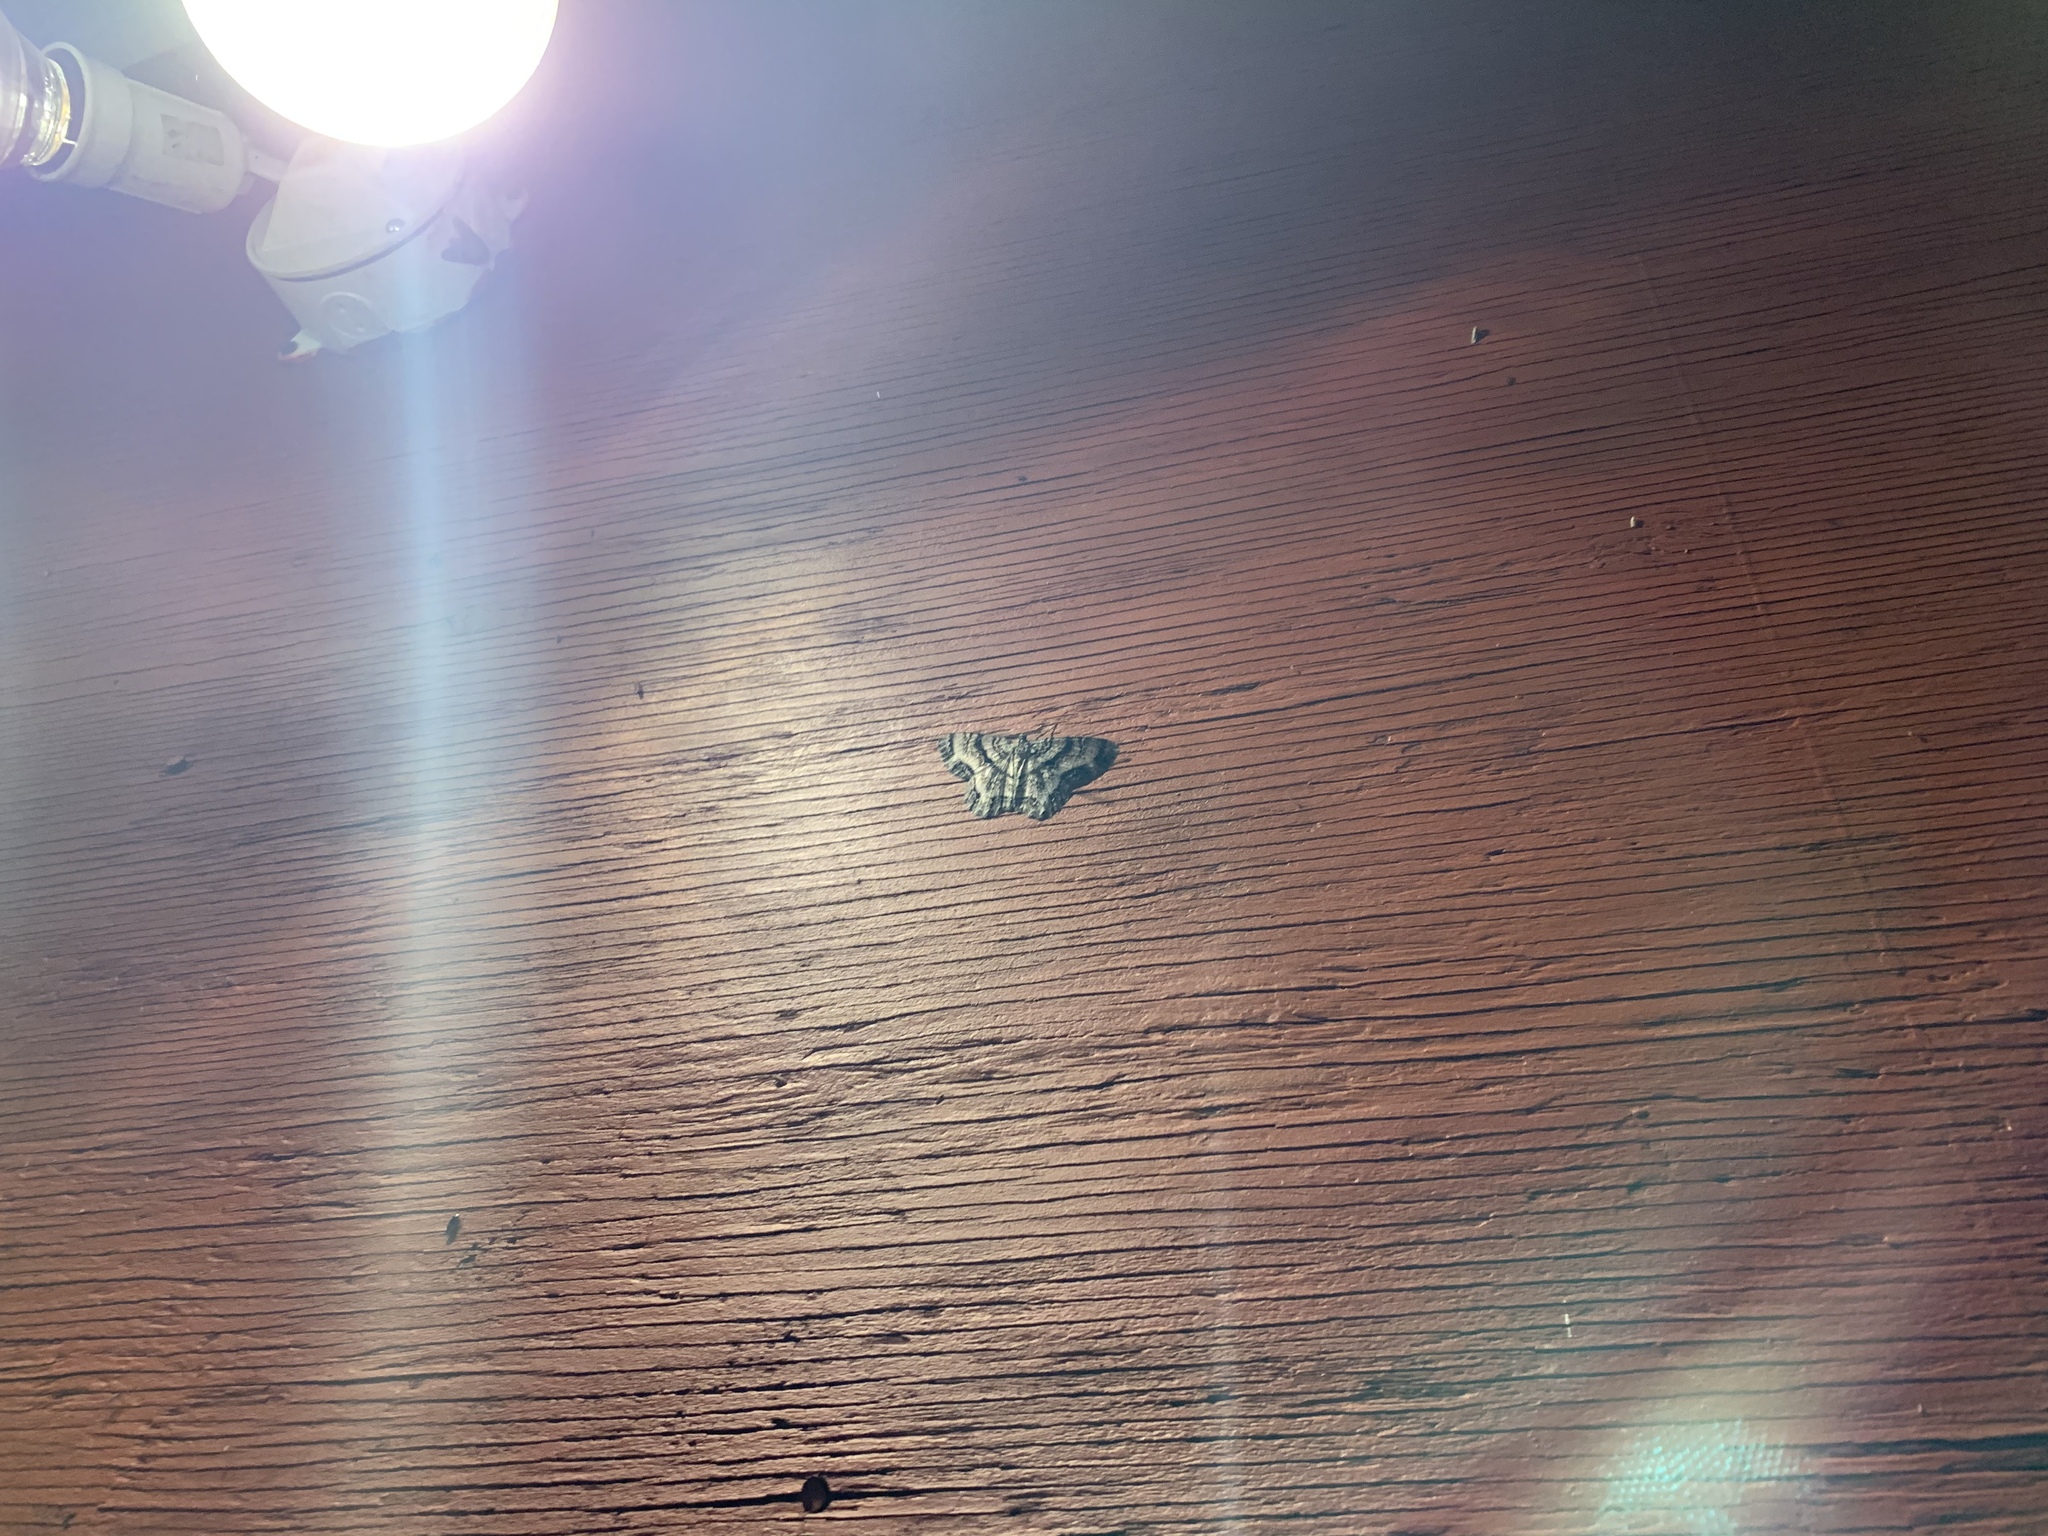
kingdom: Animalia
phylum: Arthropoda
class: Insecta
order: Lepidoptera
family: Geometridae
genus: Epimecis
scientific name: Epimecis hortaria
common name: Tulip-tree beauty
